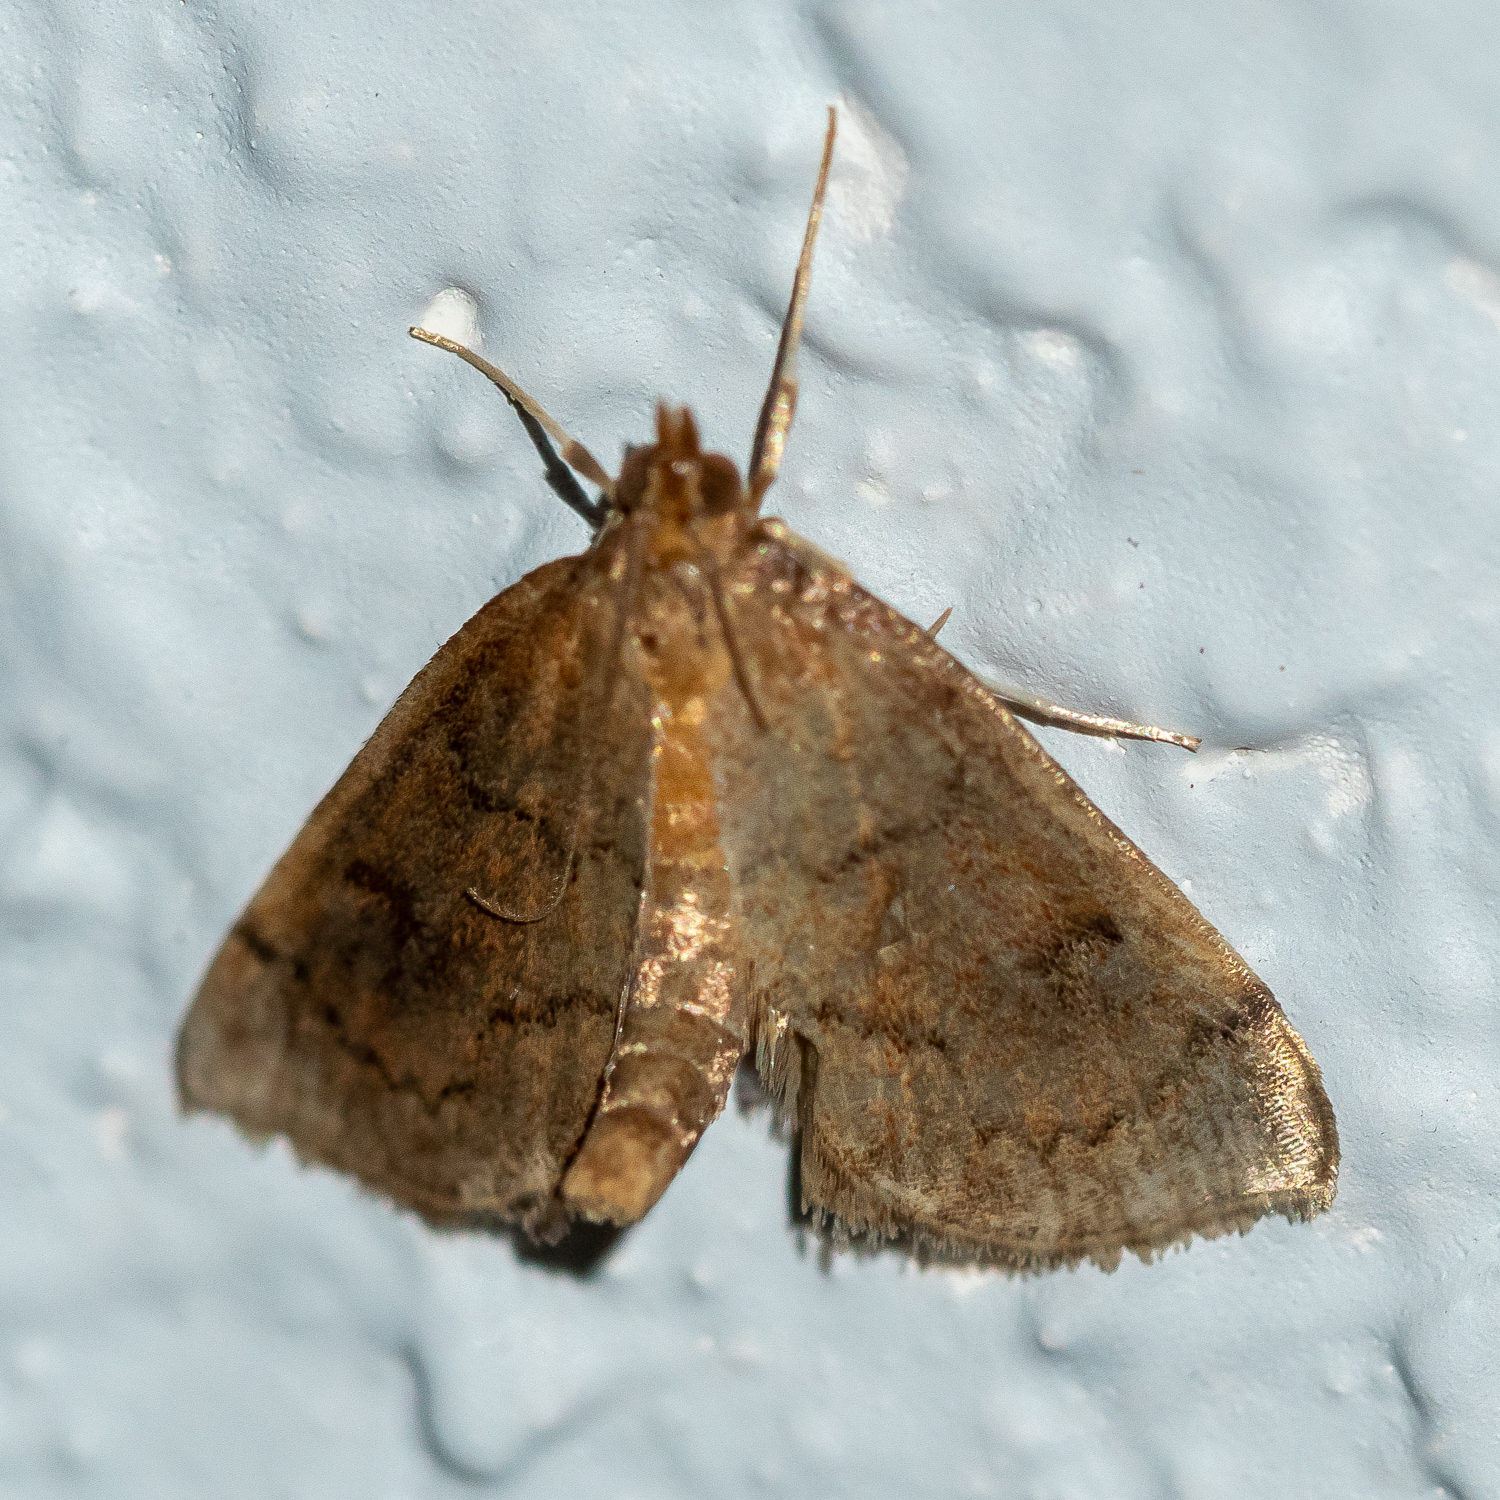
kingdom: Animalia
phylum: Arthropoda
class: Insecta
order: Lepidoptera
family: Crambidae
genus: Fumibotys
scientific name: Fumibotys fumalis
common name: Mint root borer moth
